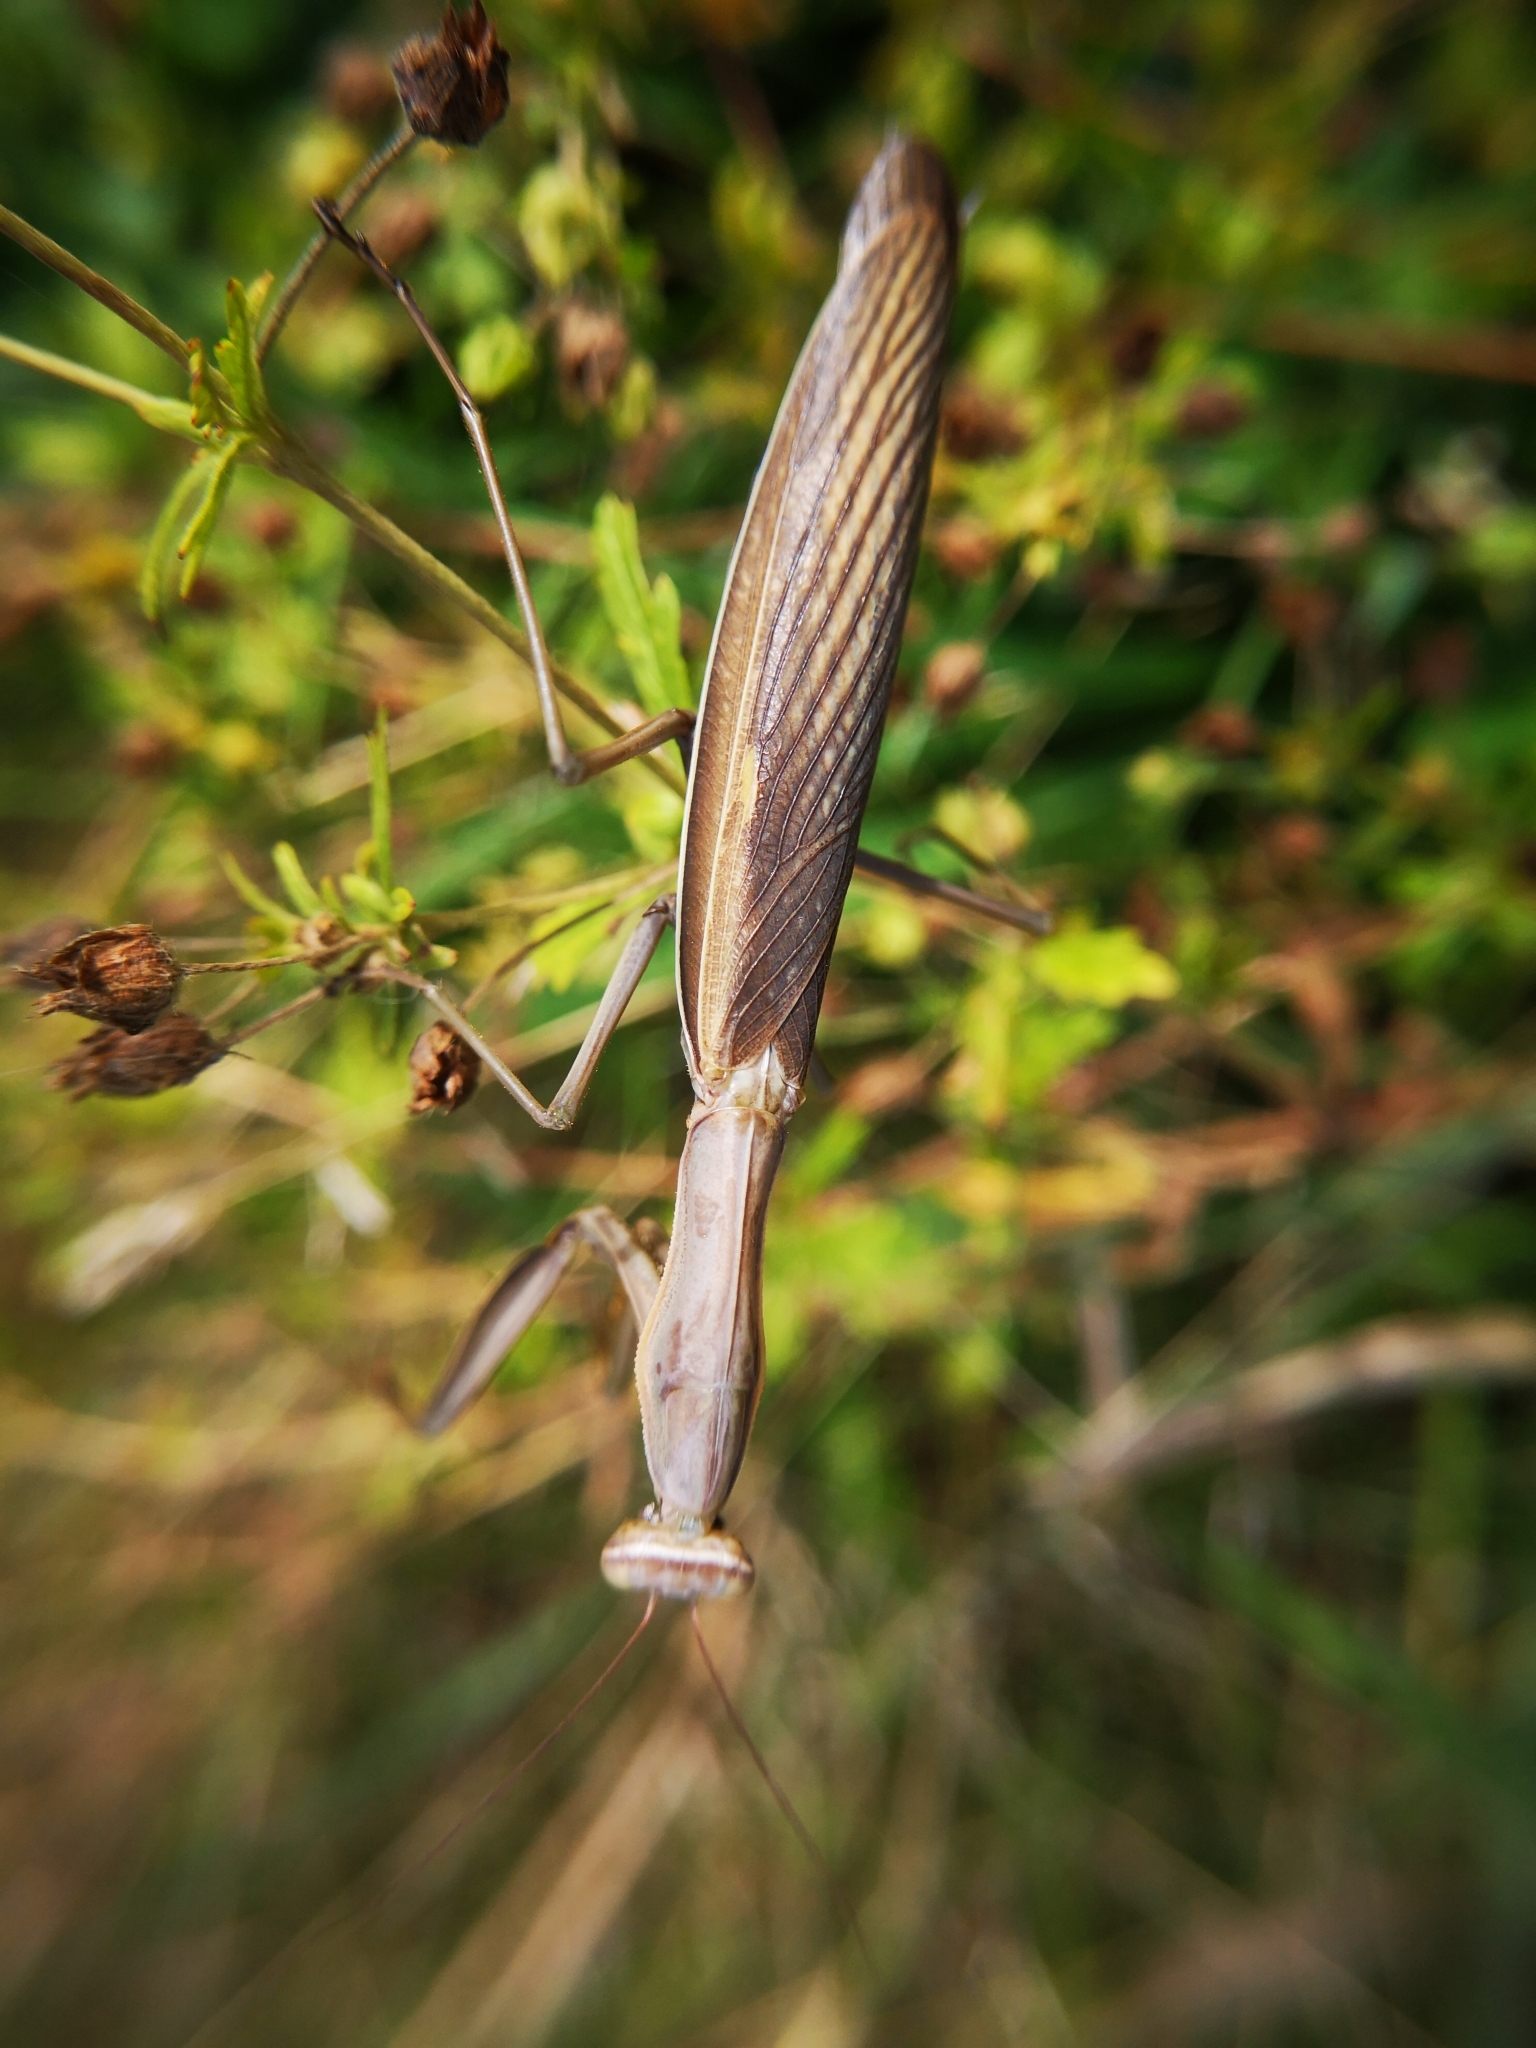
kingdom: Animalia
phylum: Arthropoda
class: Insecta
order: Mantodea
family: Mantidae
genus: Mantis
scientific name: Mantis religiosa
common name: Praying mantis
